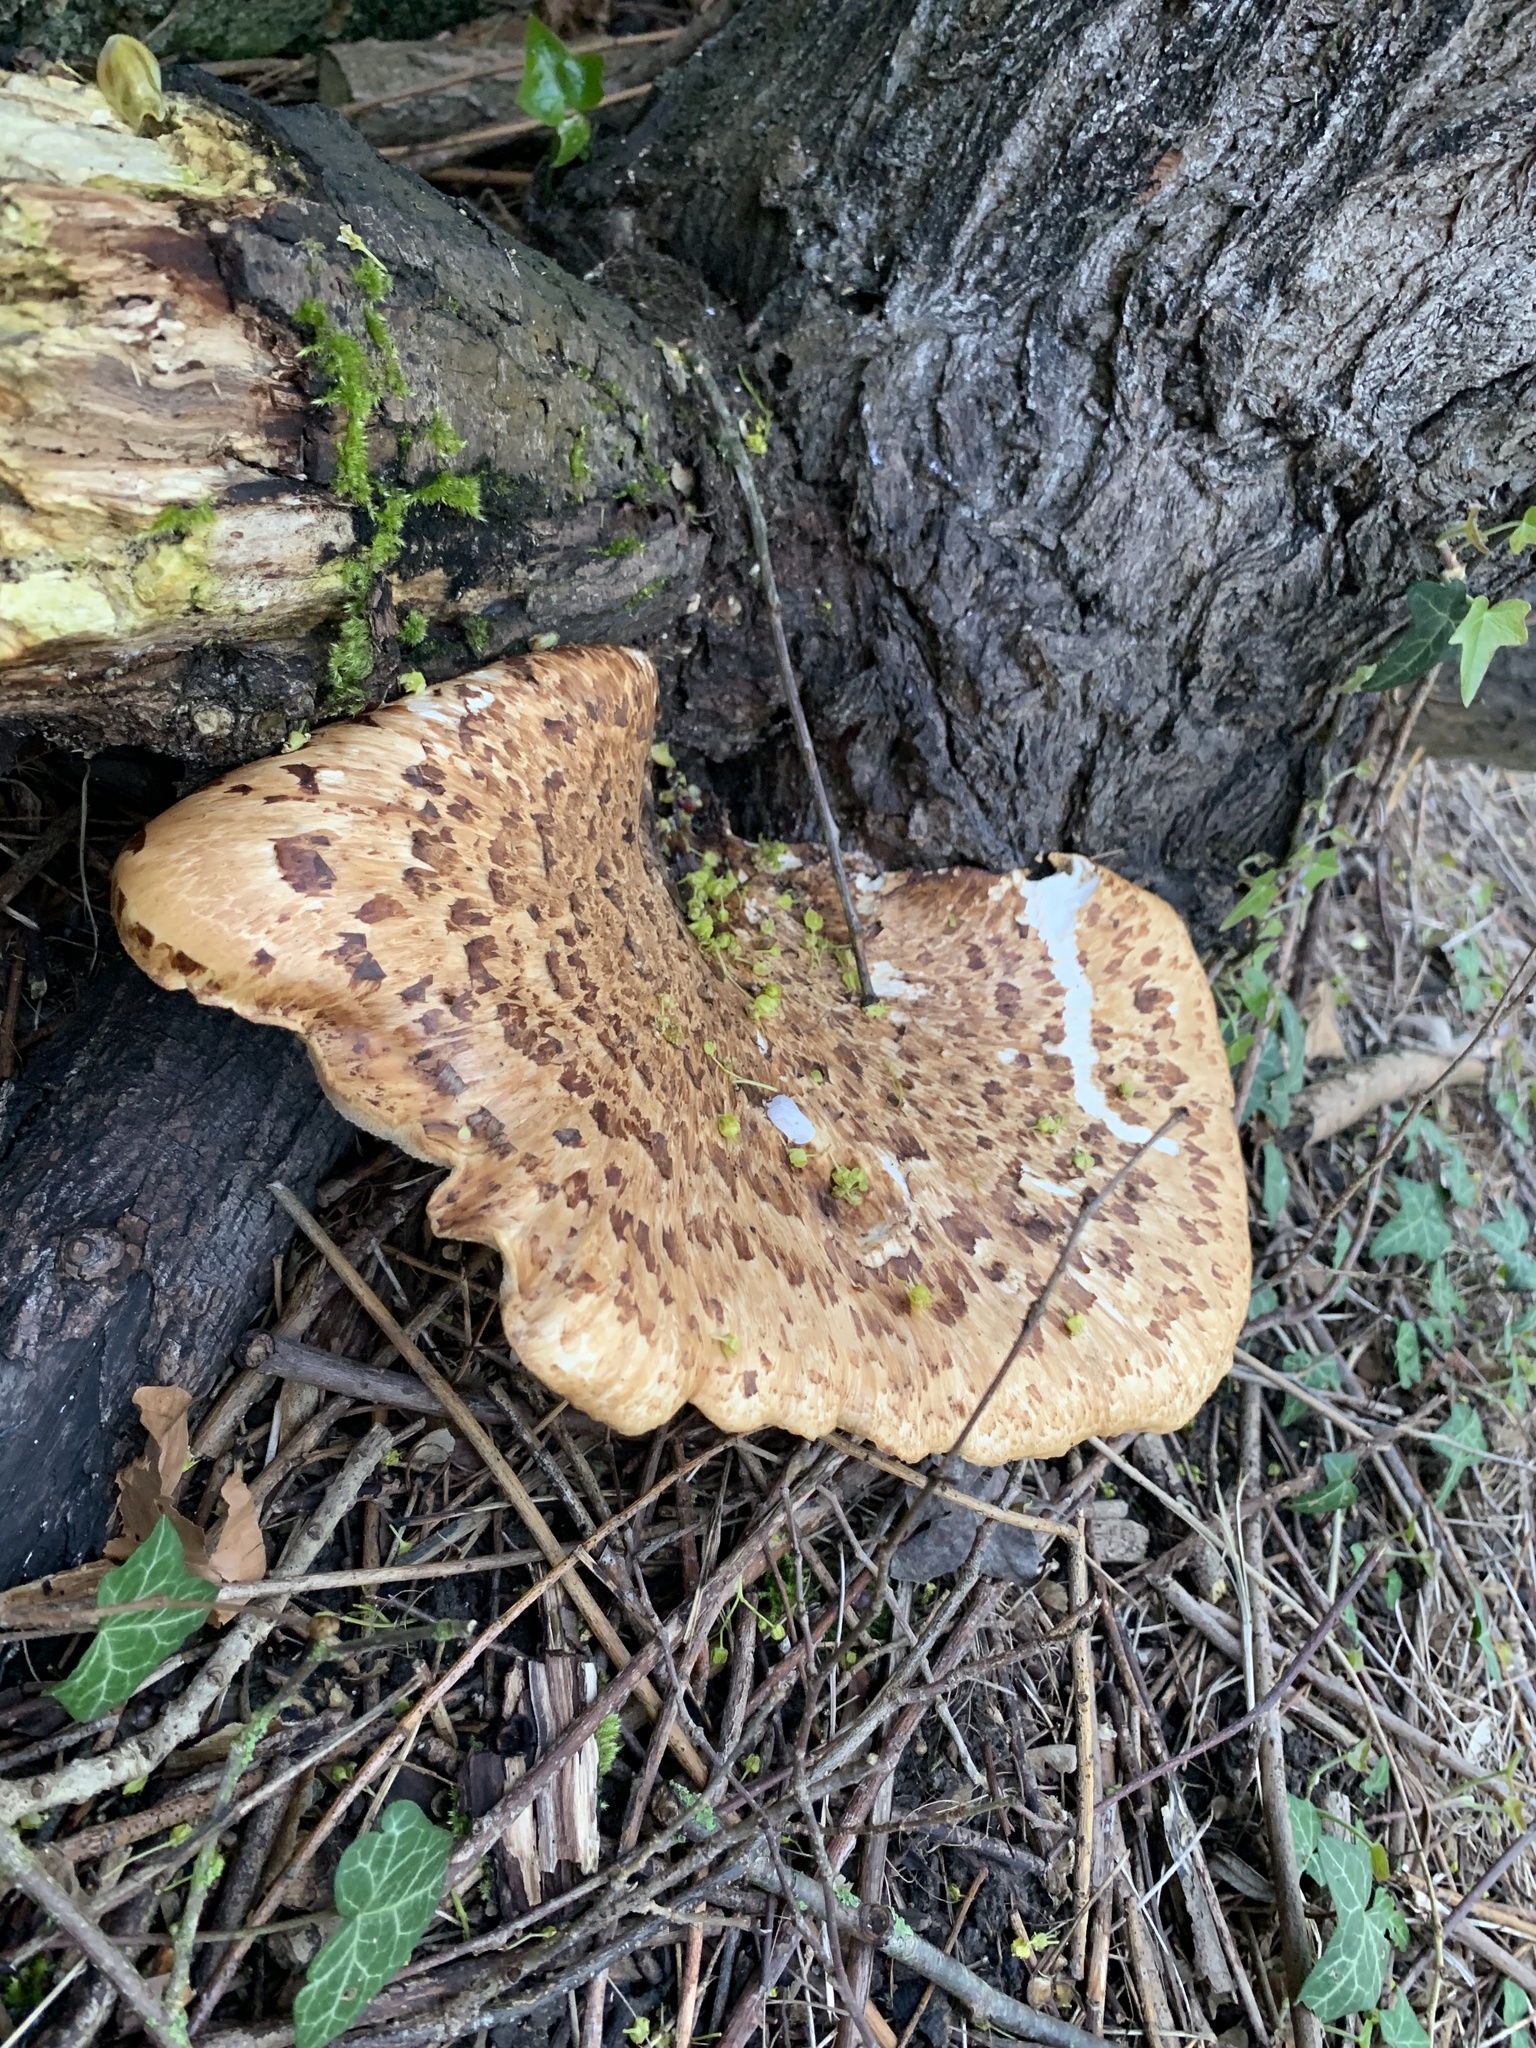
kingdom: Fungi
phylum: Basidiomycota
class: Agaricomycetes
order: Polyporales
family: Polyporaceae
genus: Cerioporus
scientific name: Cerioporus squamosus
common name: Dryad's saddle
